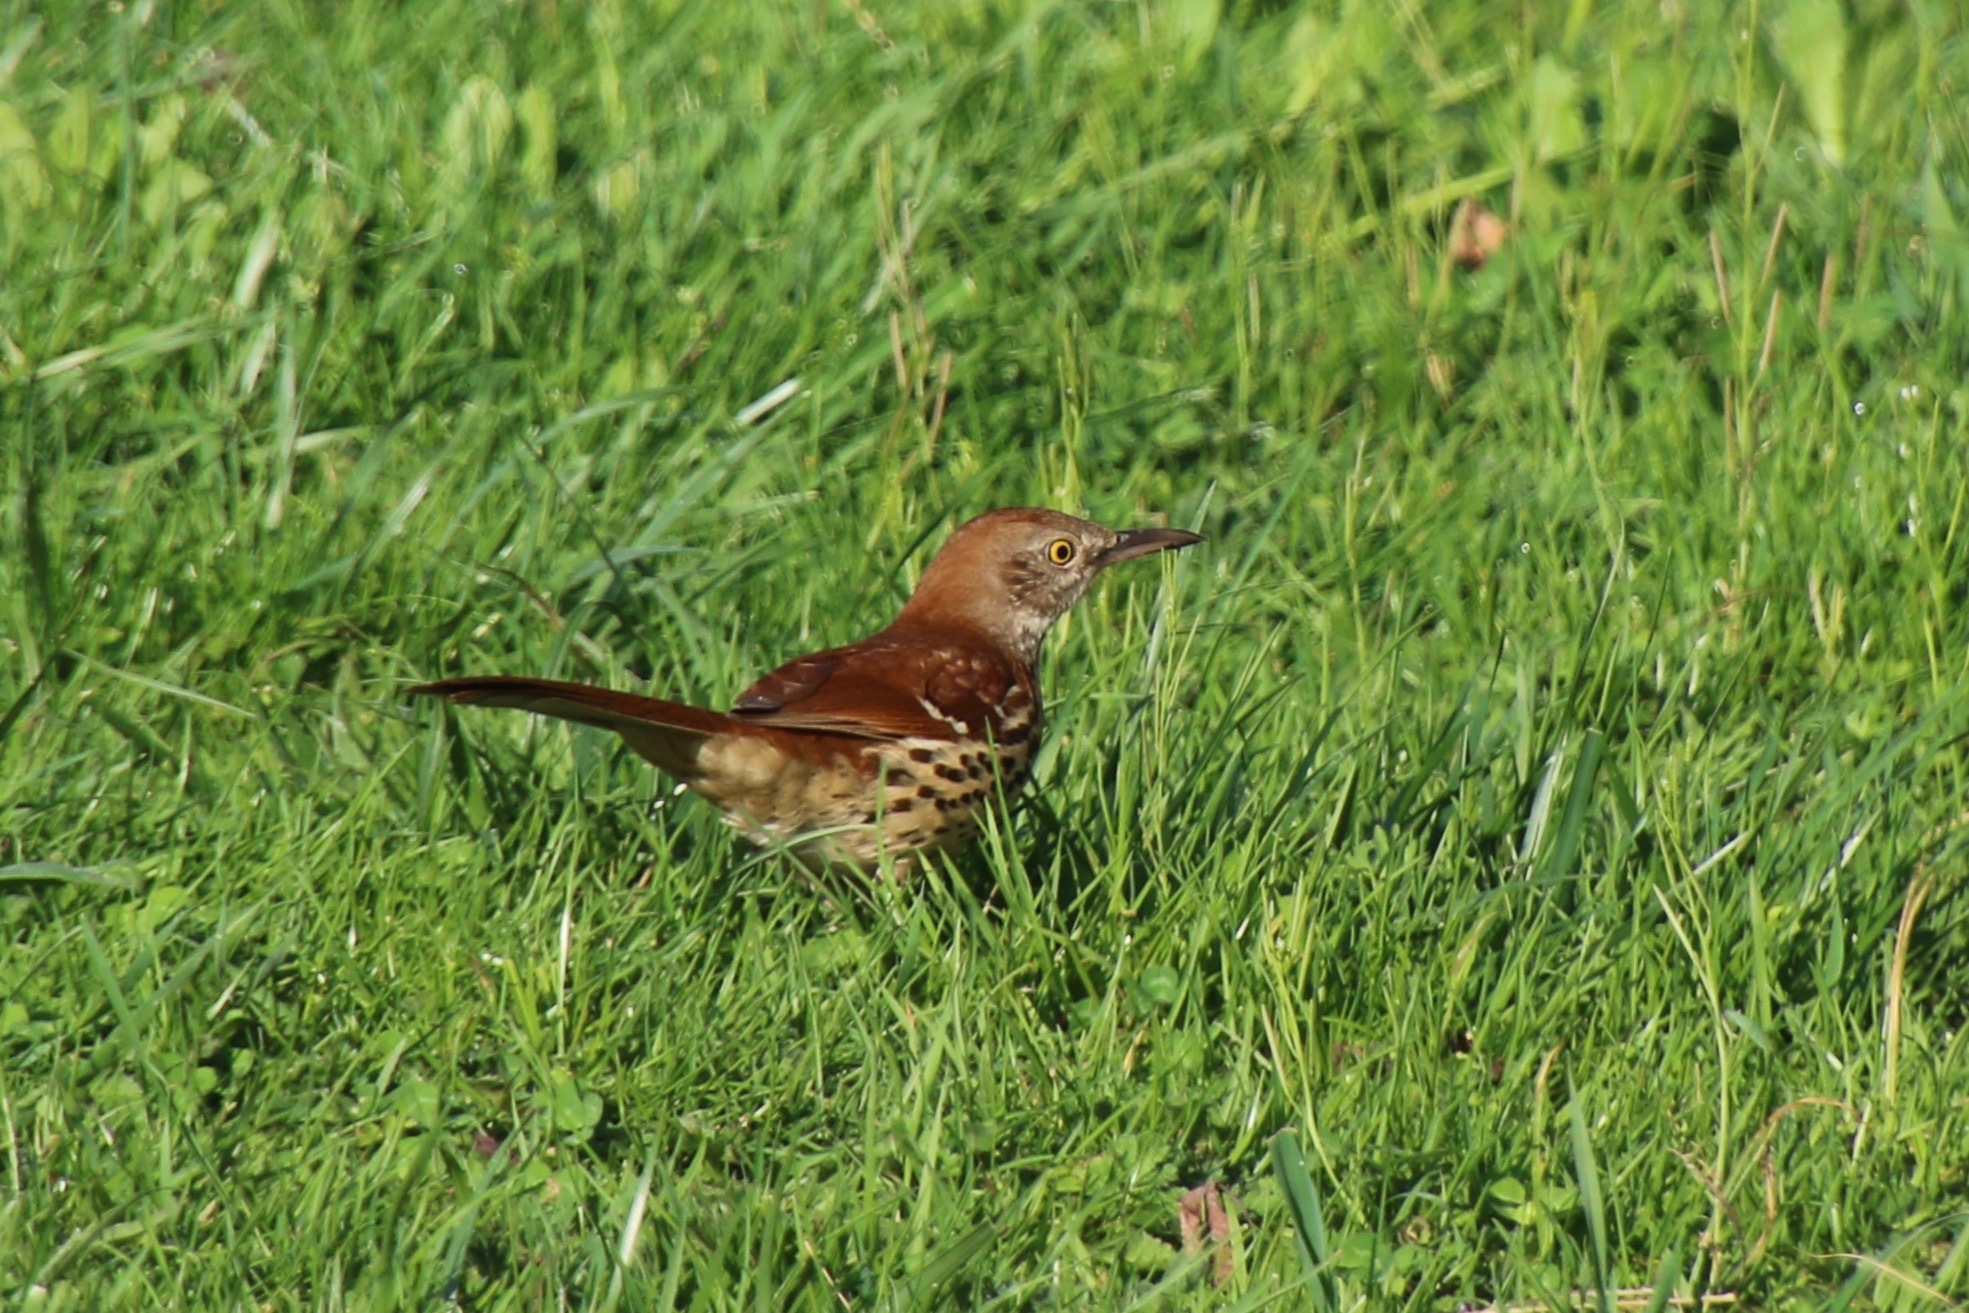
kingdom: Animalia
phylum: Chordata
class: Aves
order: Passeriformes
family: Mimidae
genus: Toxostoma
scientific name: Toxostoma rufum
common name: Brown thrasher
